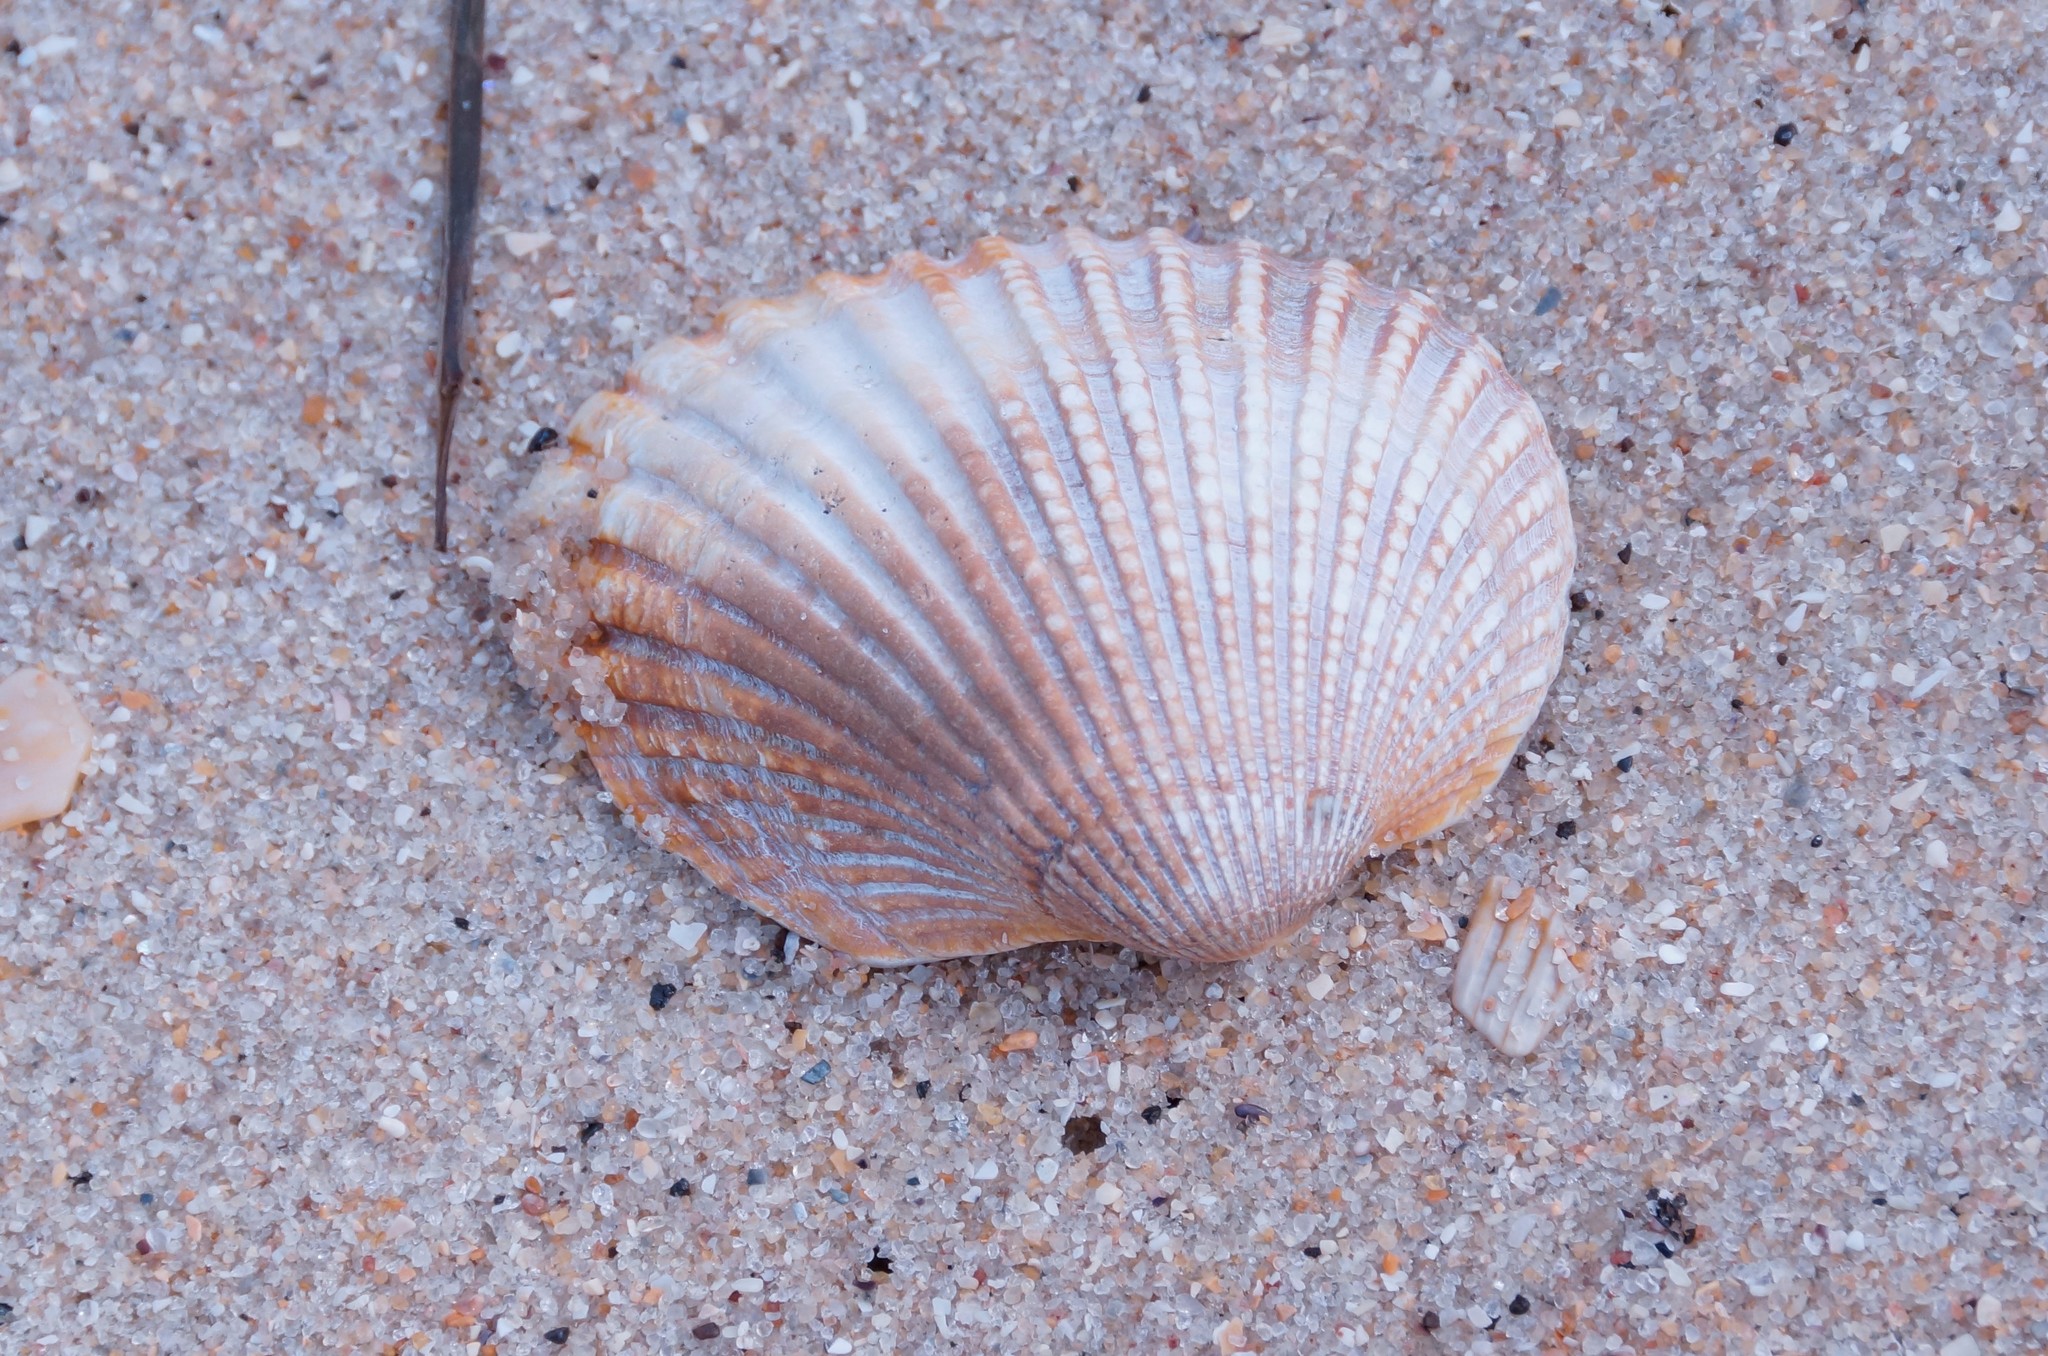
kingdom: Animalia
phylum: Mollusca
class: Bivalvia
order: Arcida
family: Arcidae
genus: Anadara
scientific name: Anadara trapezia
